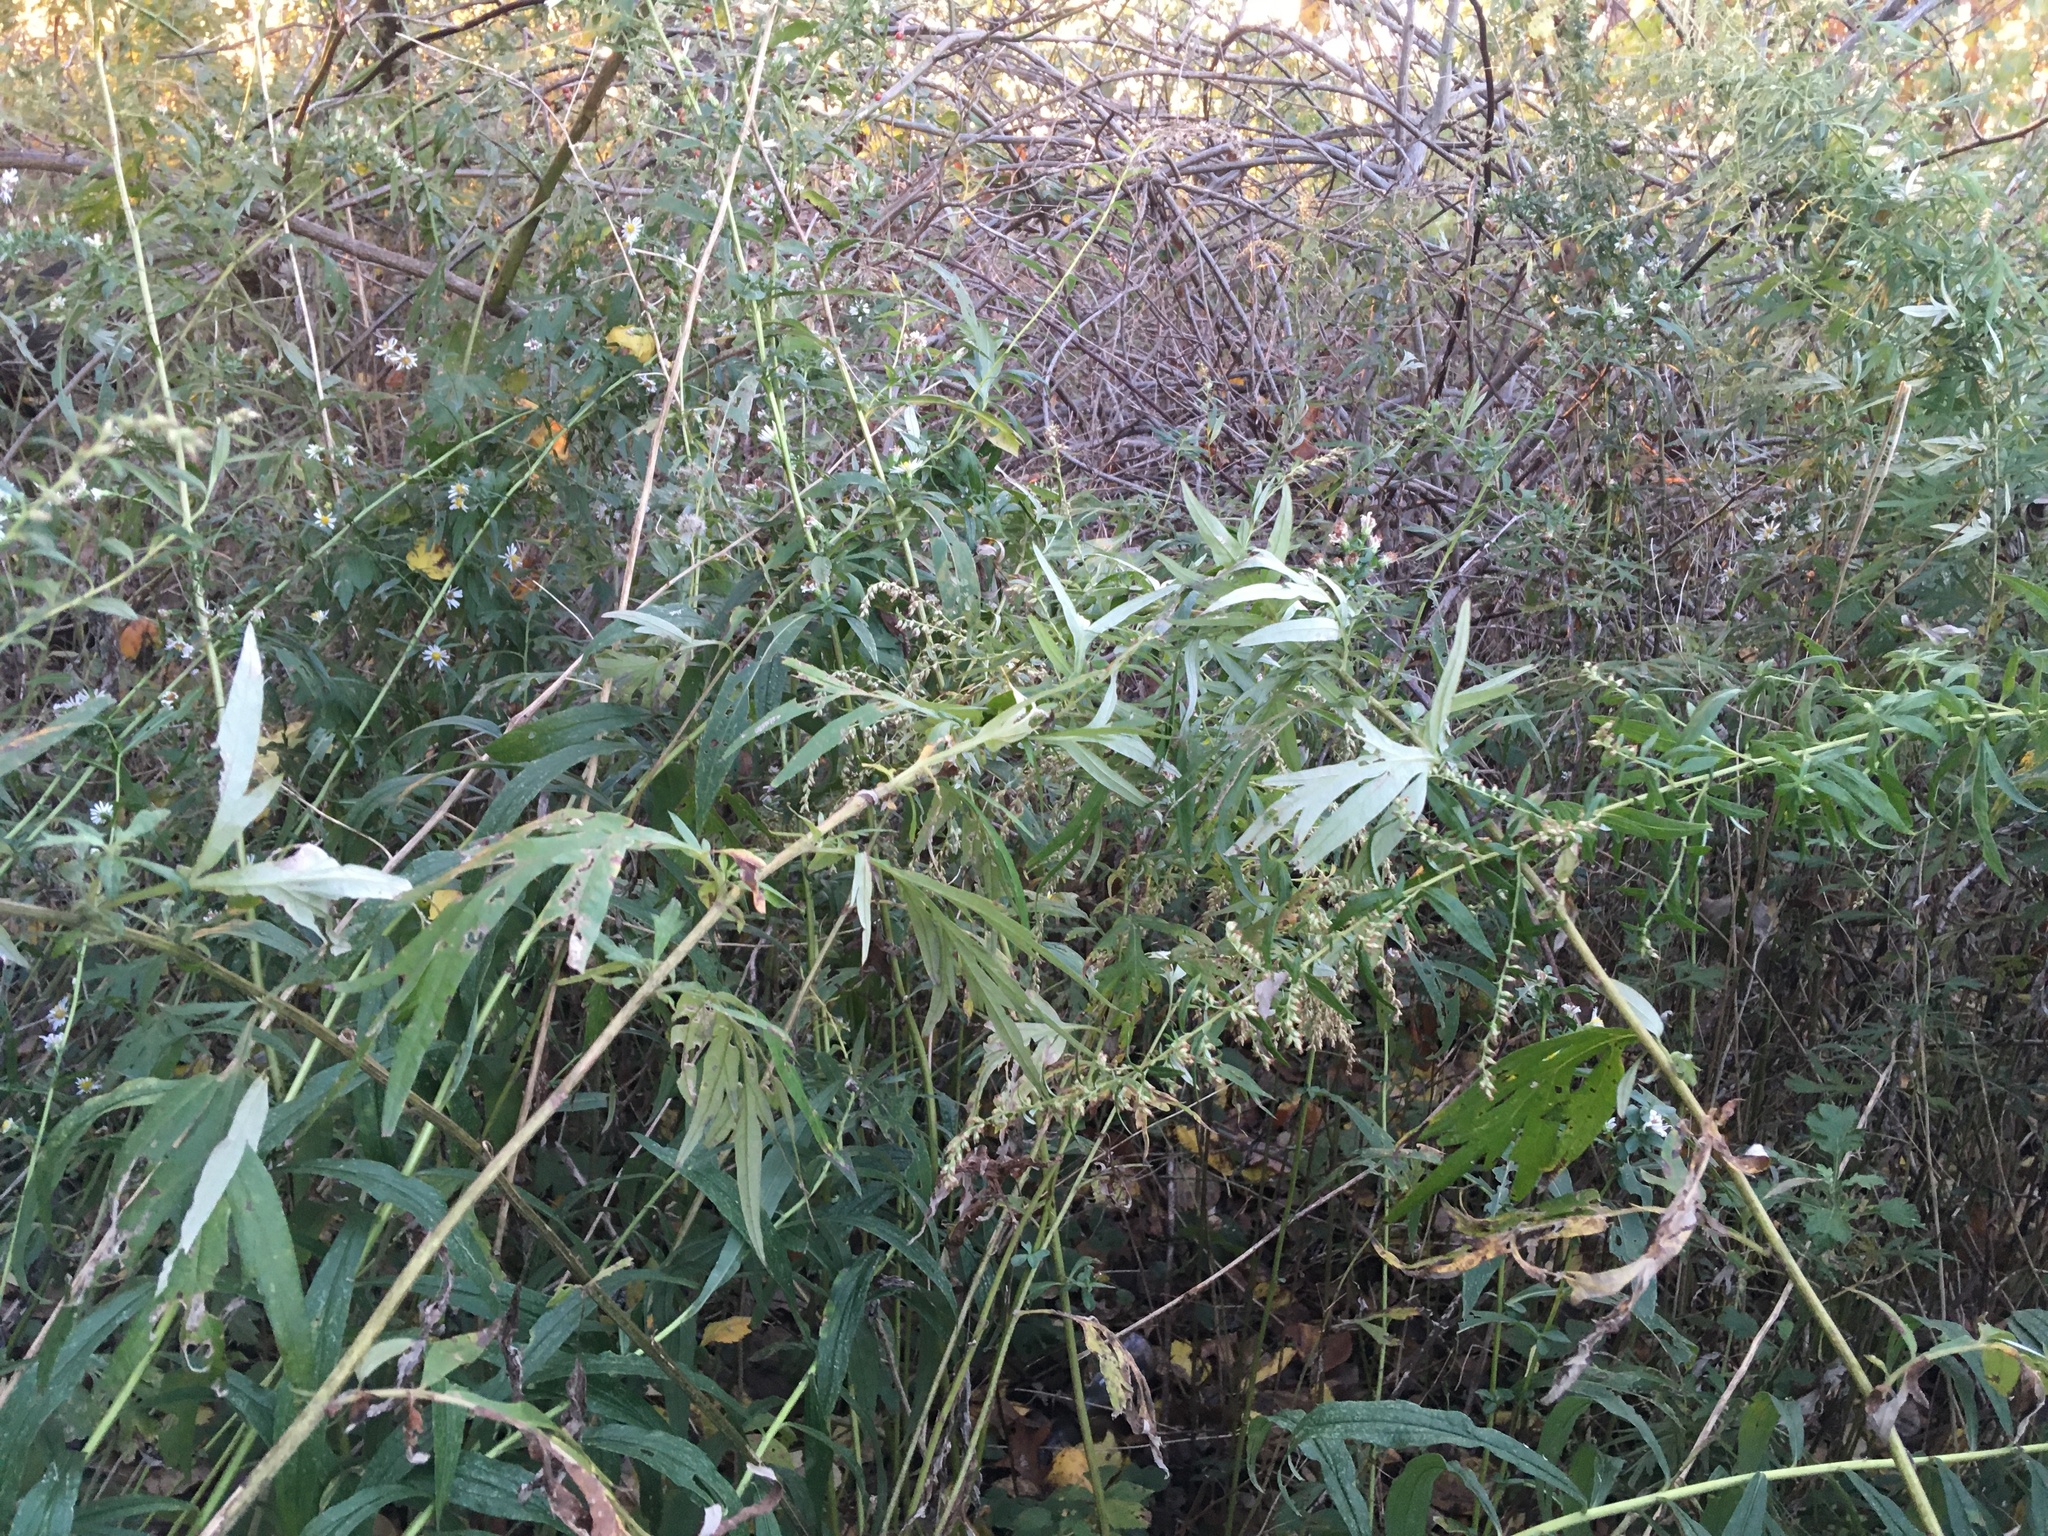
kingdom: Plantae
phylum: Tracheophyta
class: Magnoliopsida
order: Asterales
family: Asteraceae
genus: Artemisia
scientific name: Artemisia vulgaris
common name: Mugwort
